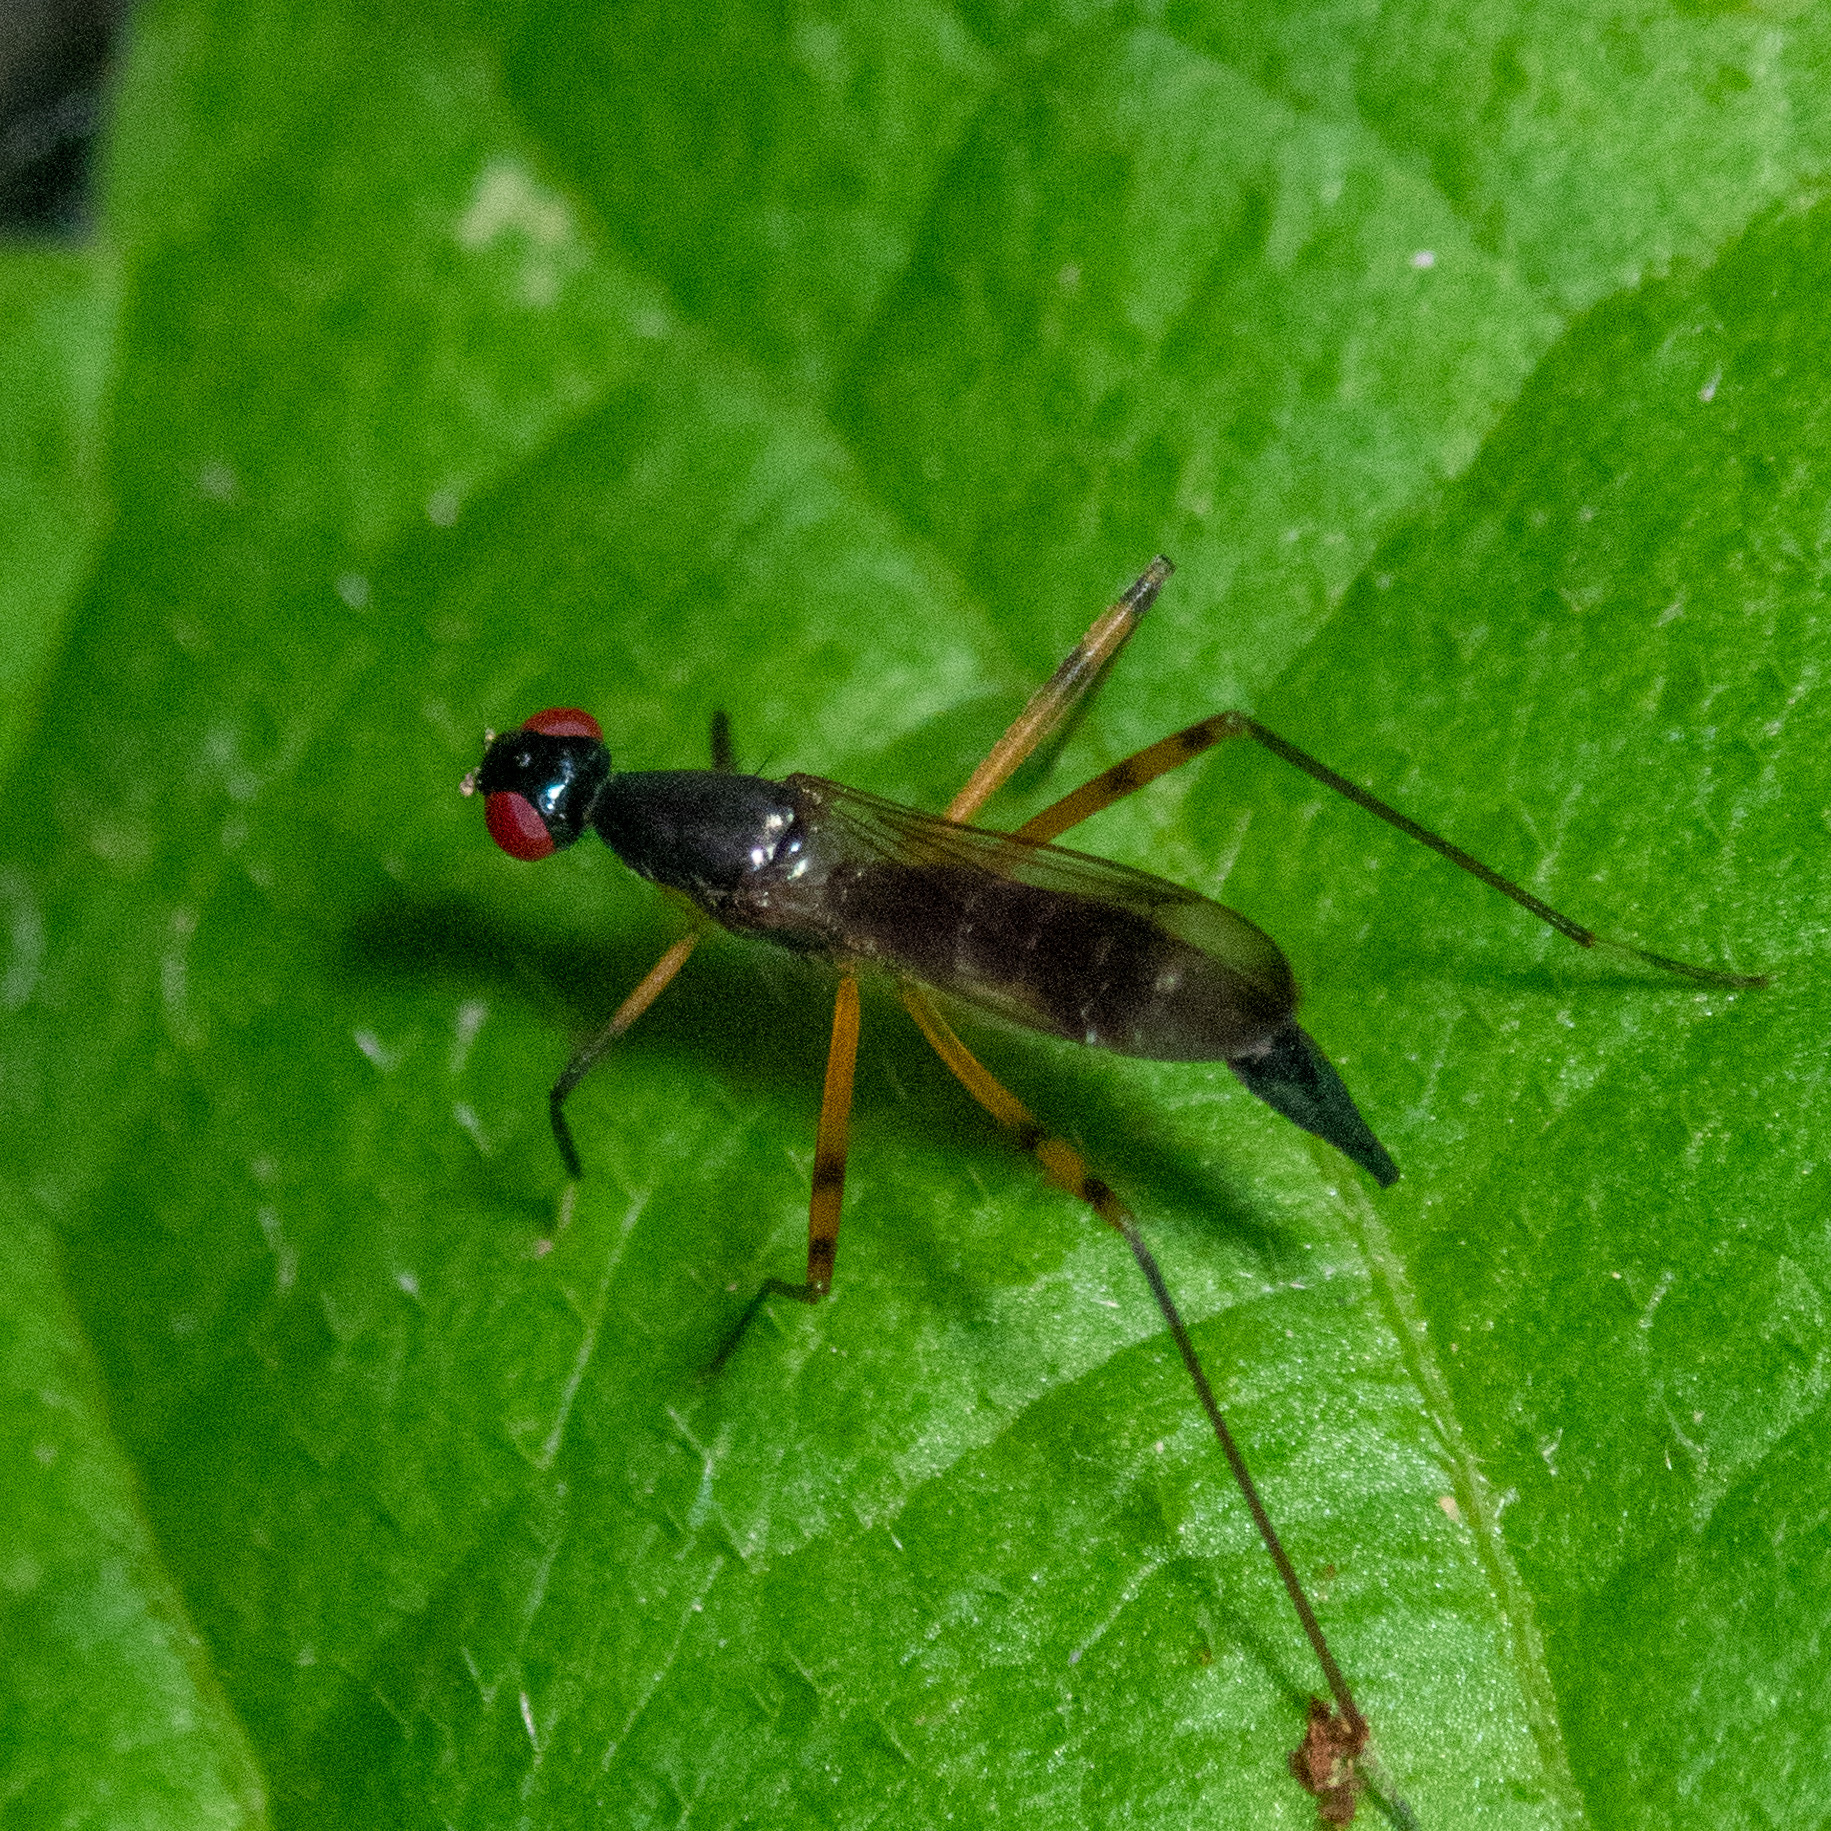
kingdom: Animalia
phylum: Arthropoda
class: Insecta
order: Diptera
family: Micropezidae
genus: Rainieria
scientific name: Rainieria antennaepes
